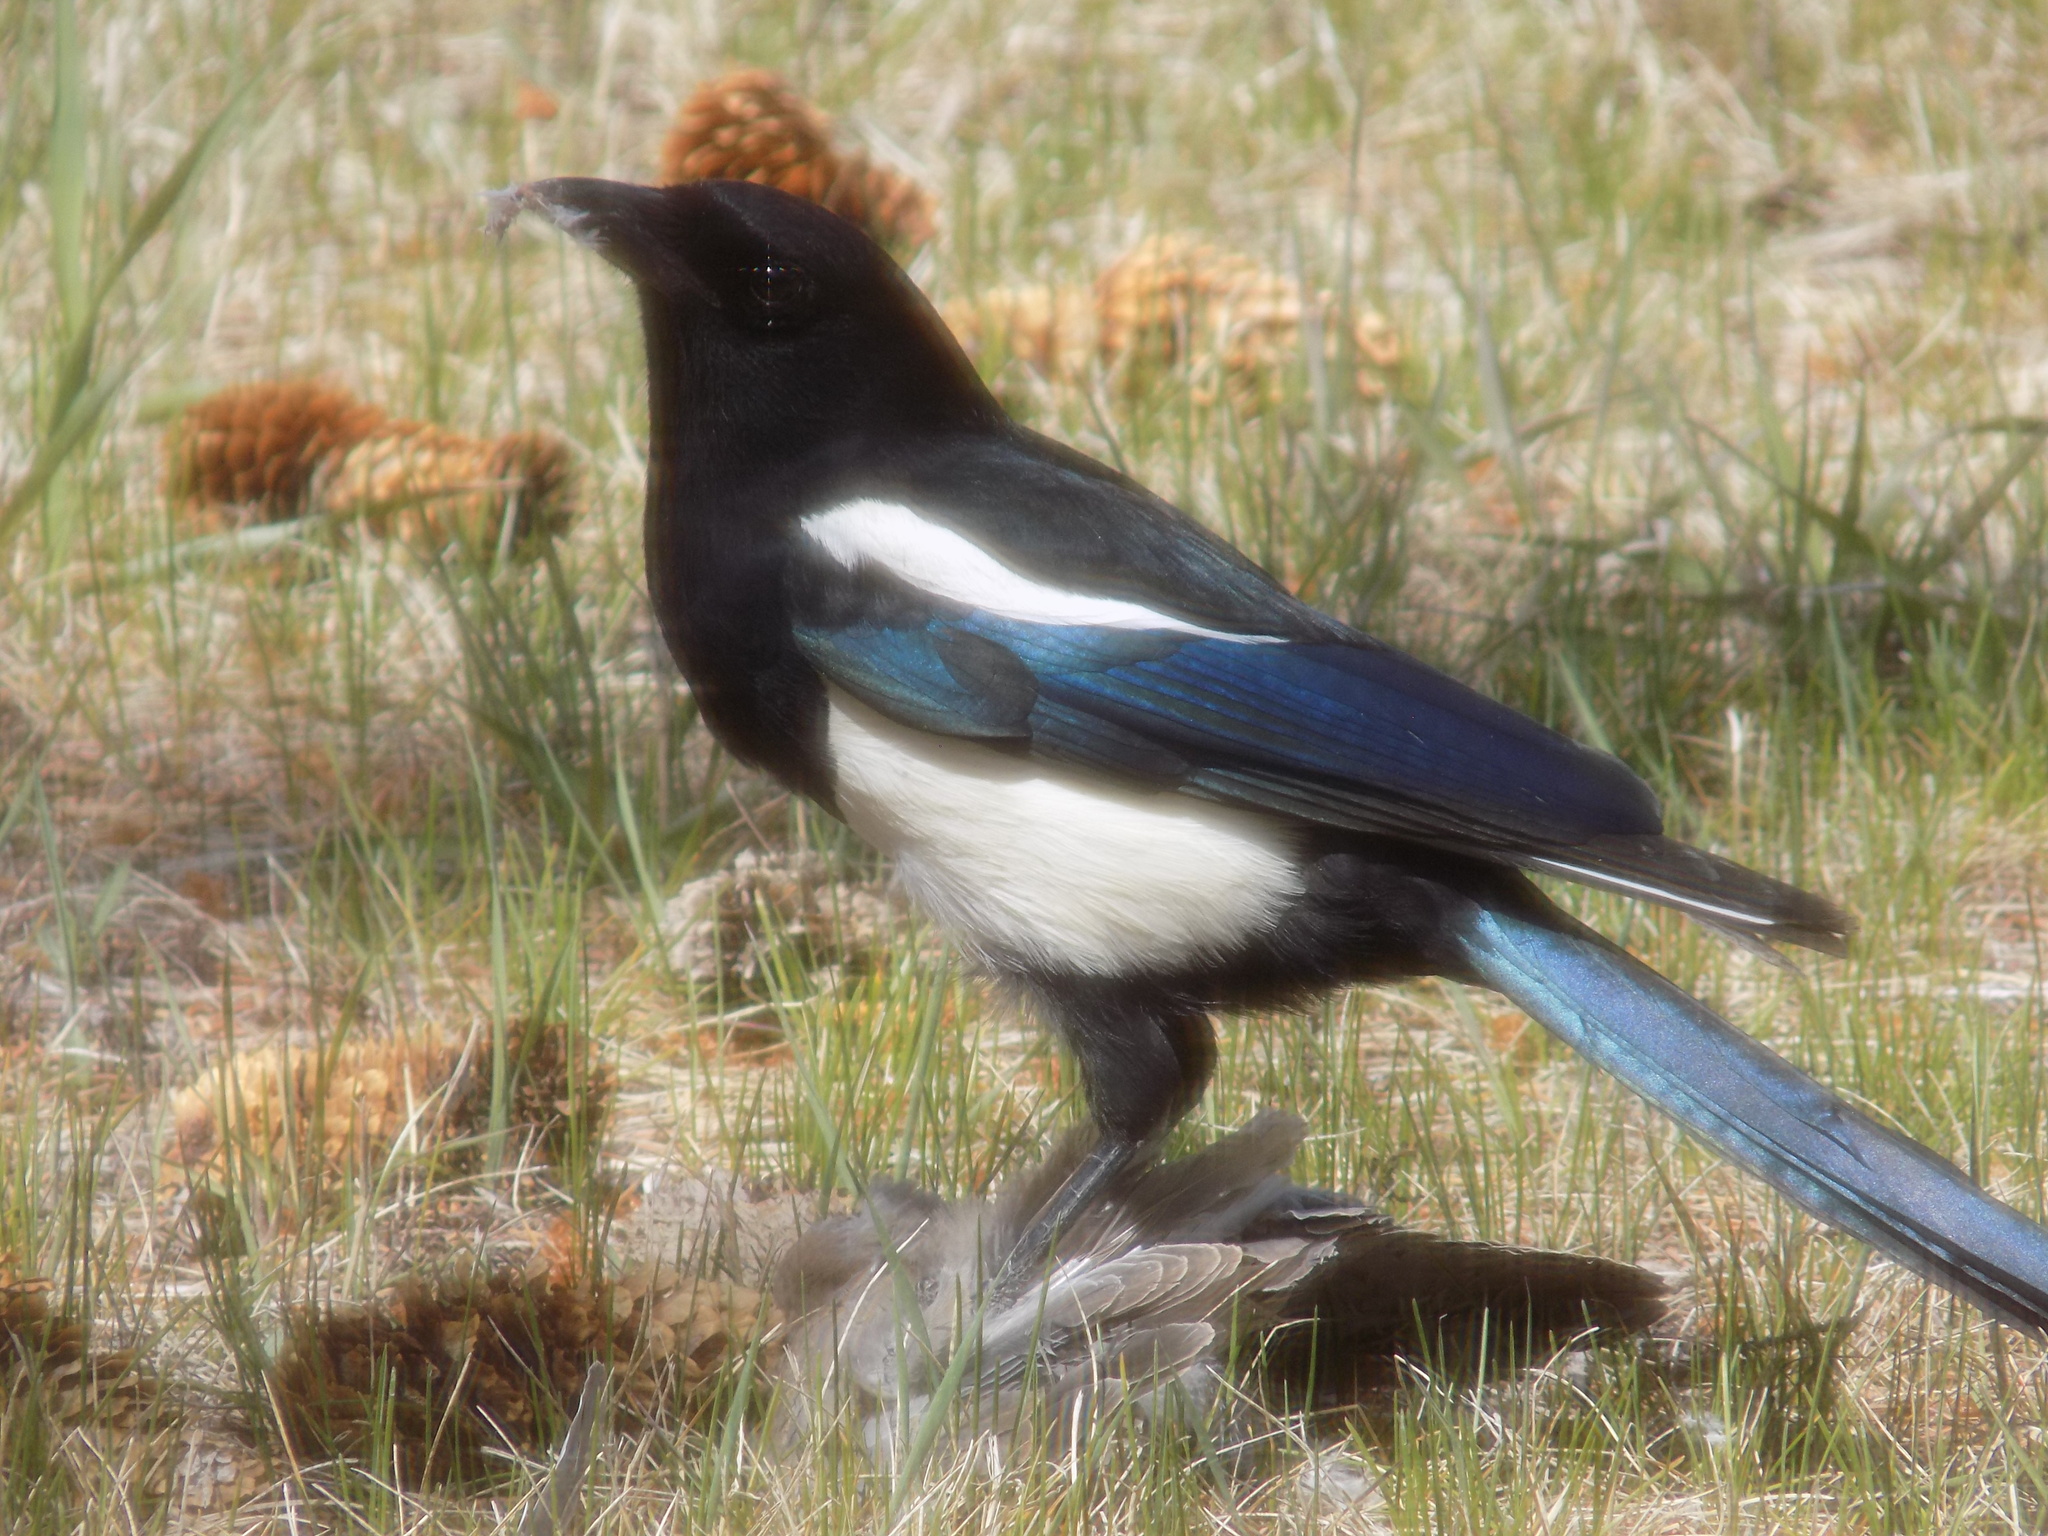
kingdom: Animalia
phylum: Chordata
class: Aves
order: Passeriformes
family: Corvidae
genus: Pica
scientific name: Pica hudsonia
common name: Black-billed magpie
